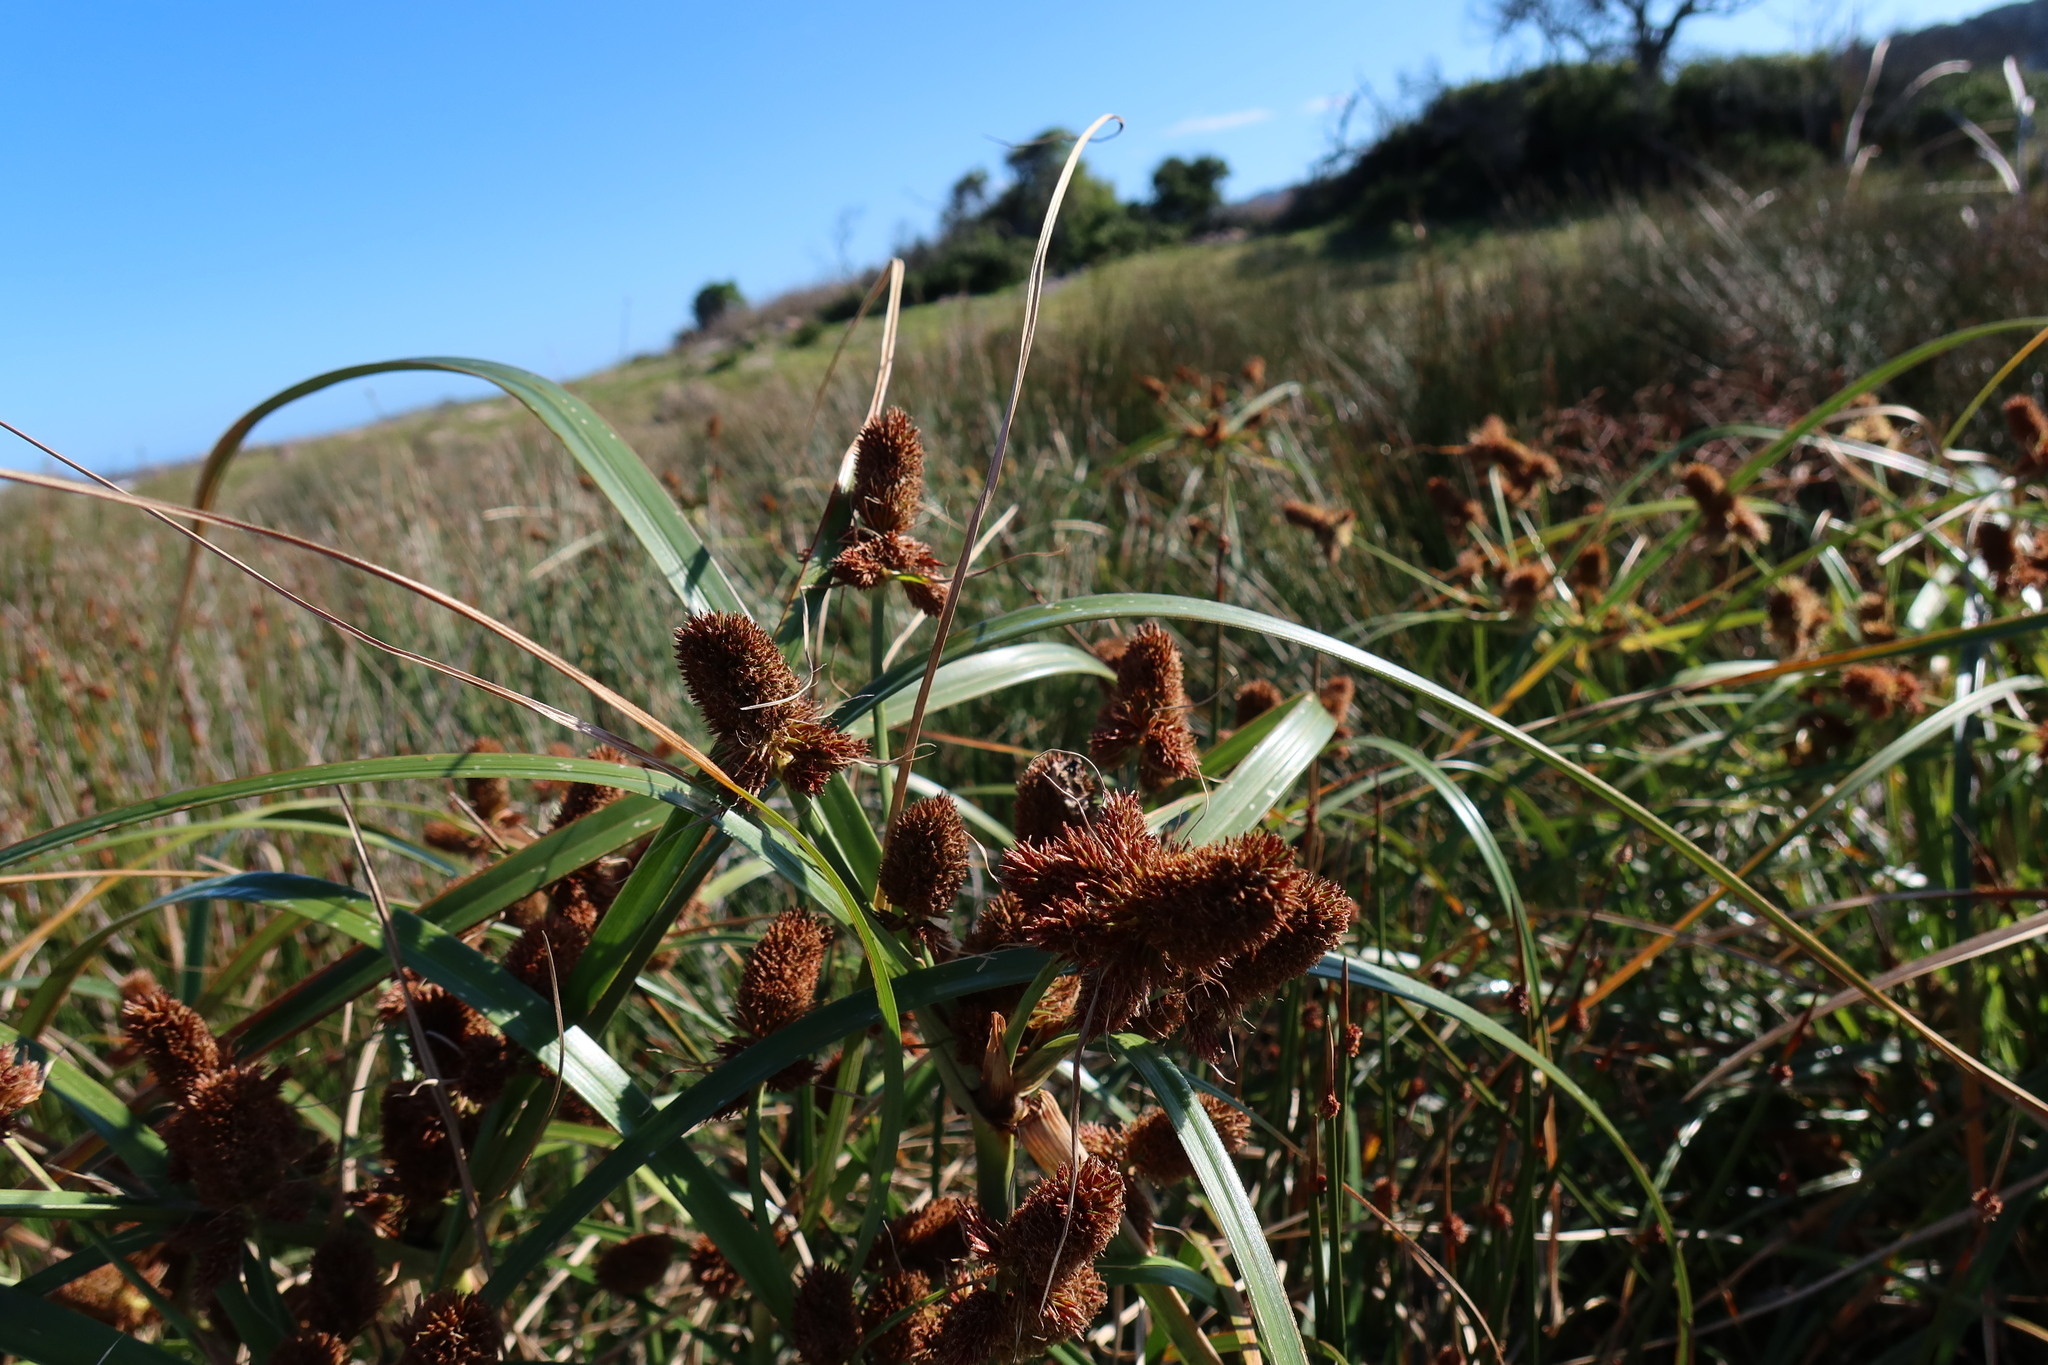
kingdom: Plantae
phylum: Tracheophyta
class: Liliopsida
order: Poales
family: Cyperaceae
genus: Cyperus
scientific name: Cyperus thunbergii
